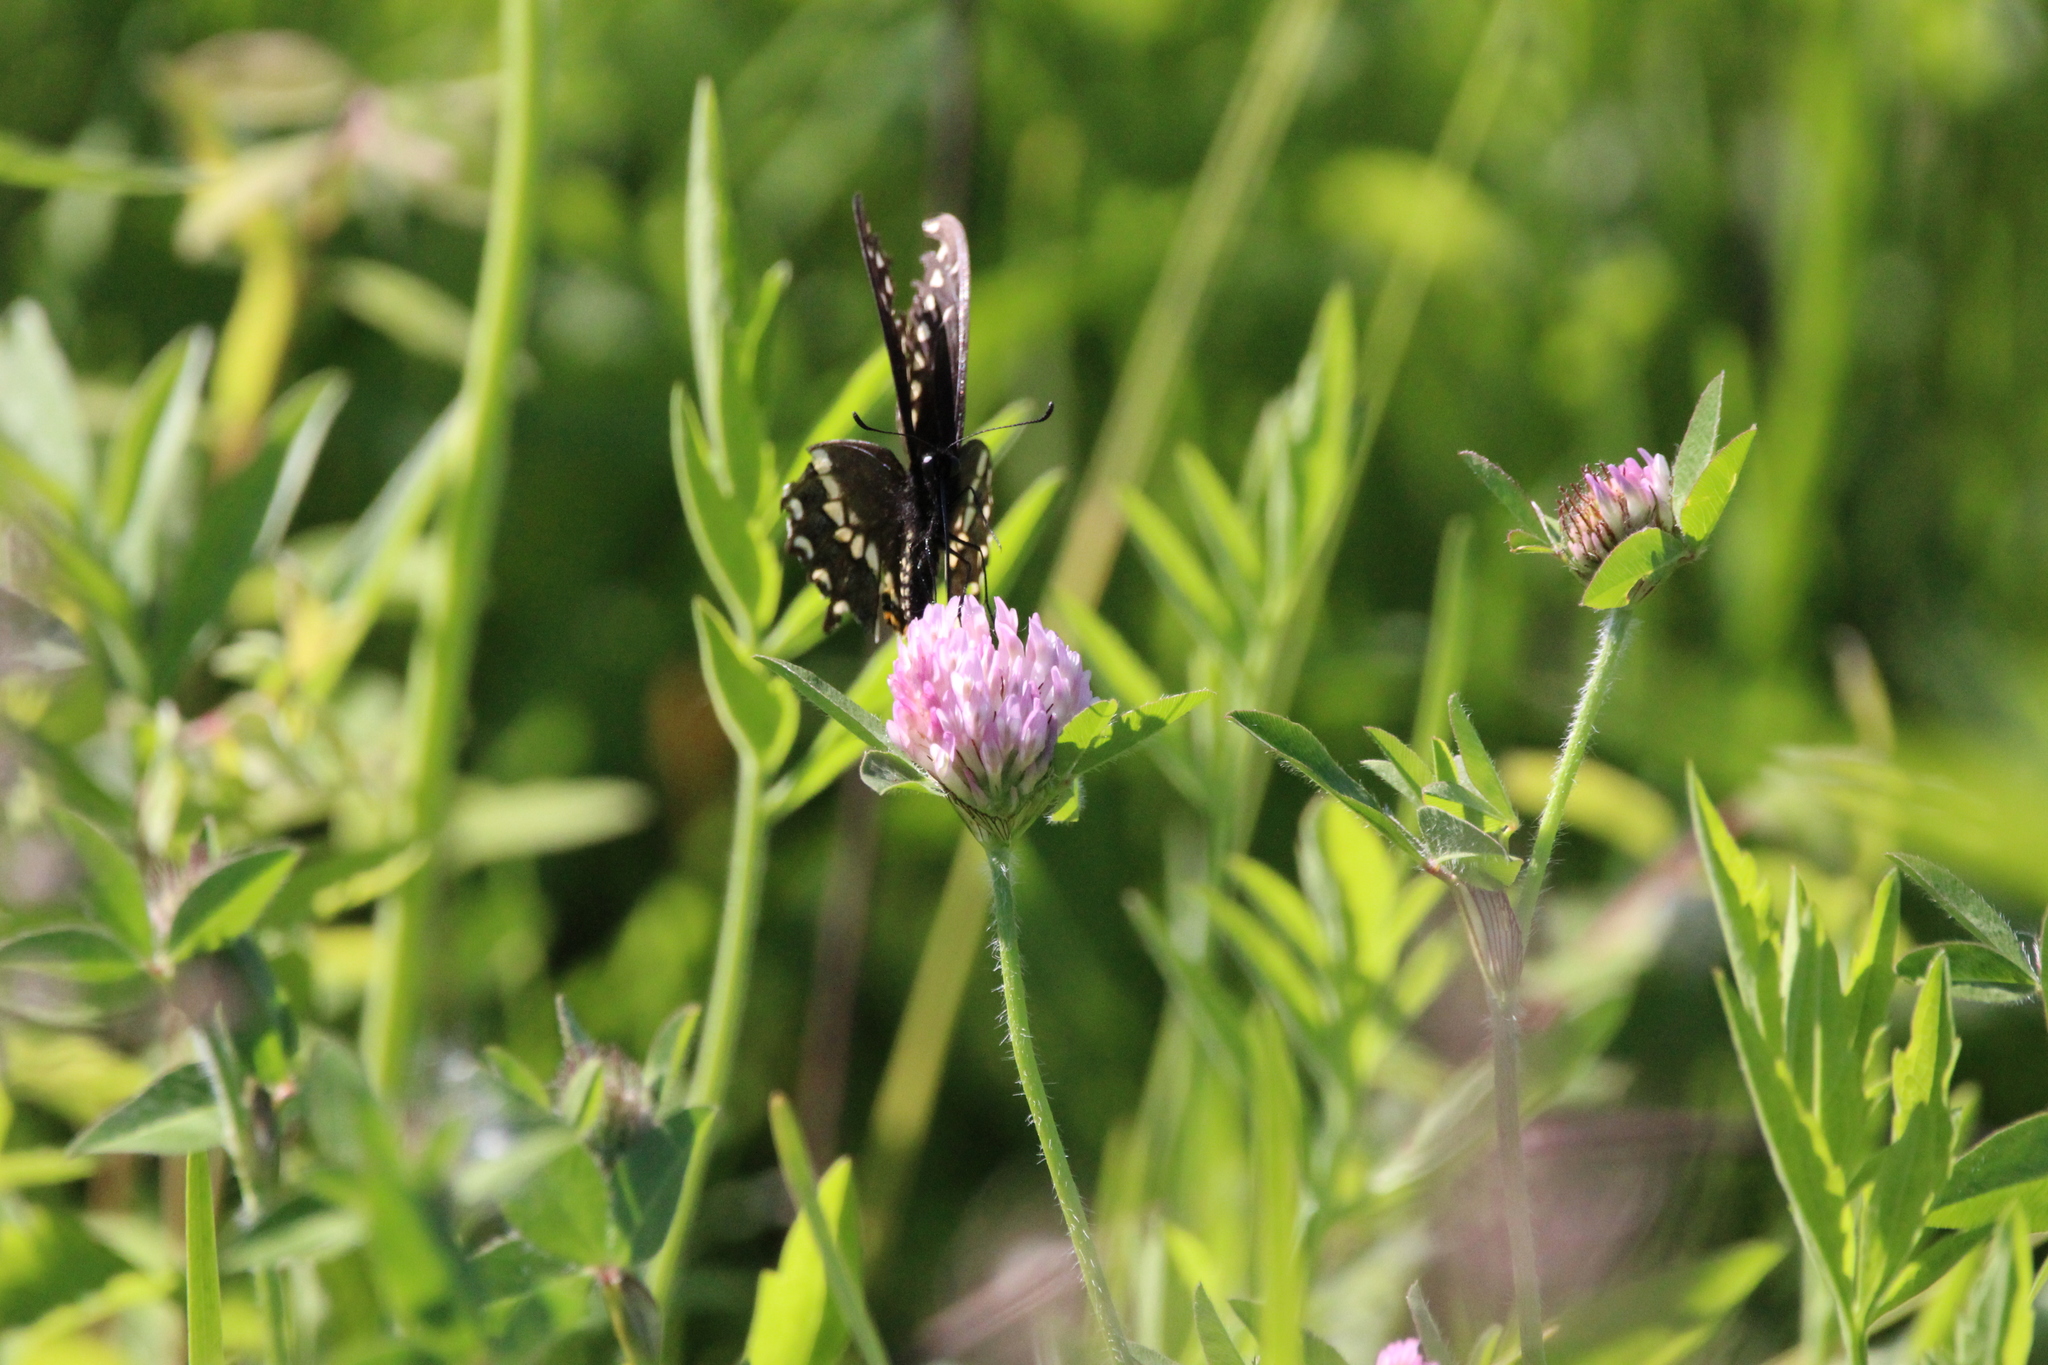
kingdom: Animalia
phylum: Arthropoda
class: Insecta
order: Lepidoptera
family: Papilionidae
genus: Papilio
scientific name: Papilio polyxenes
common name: Black swallowtail
